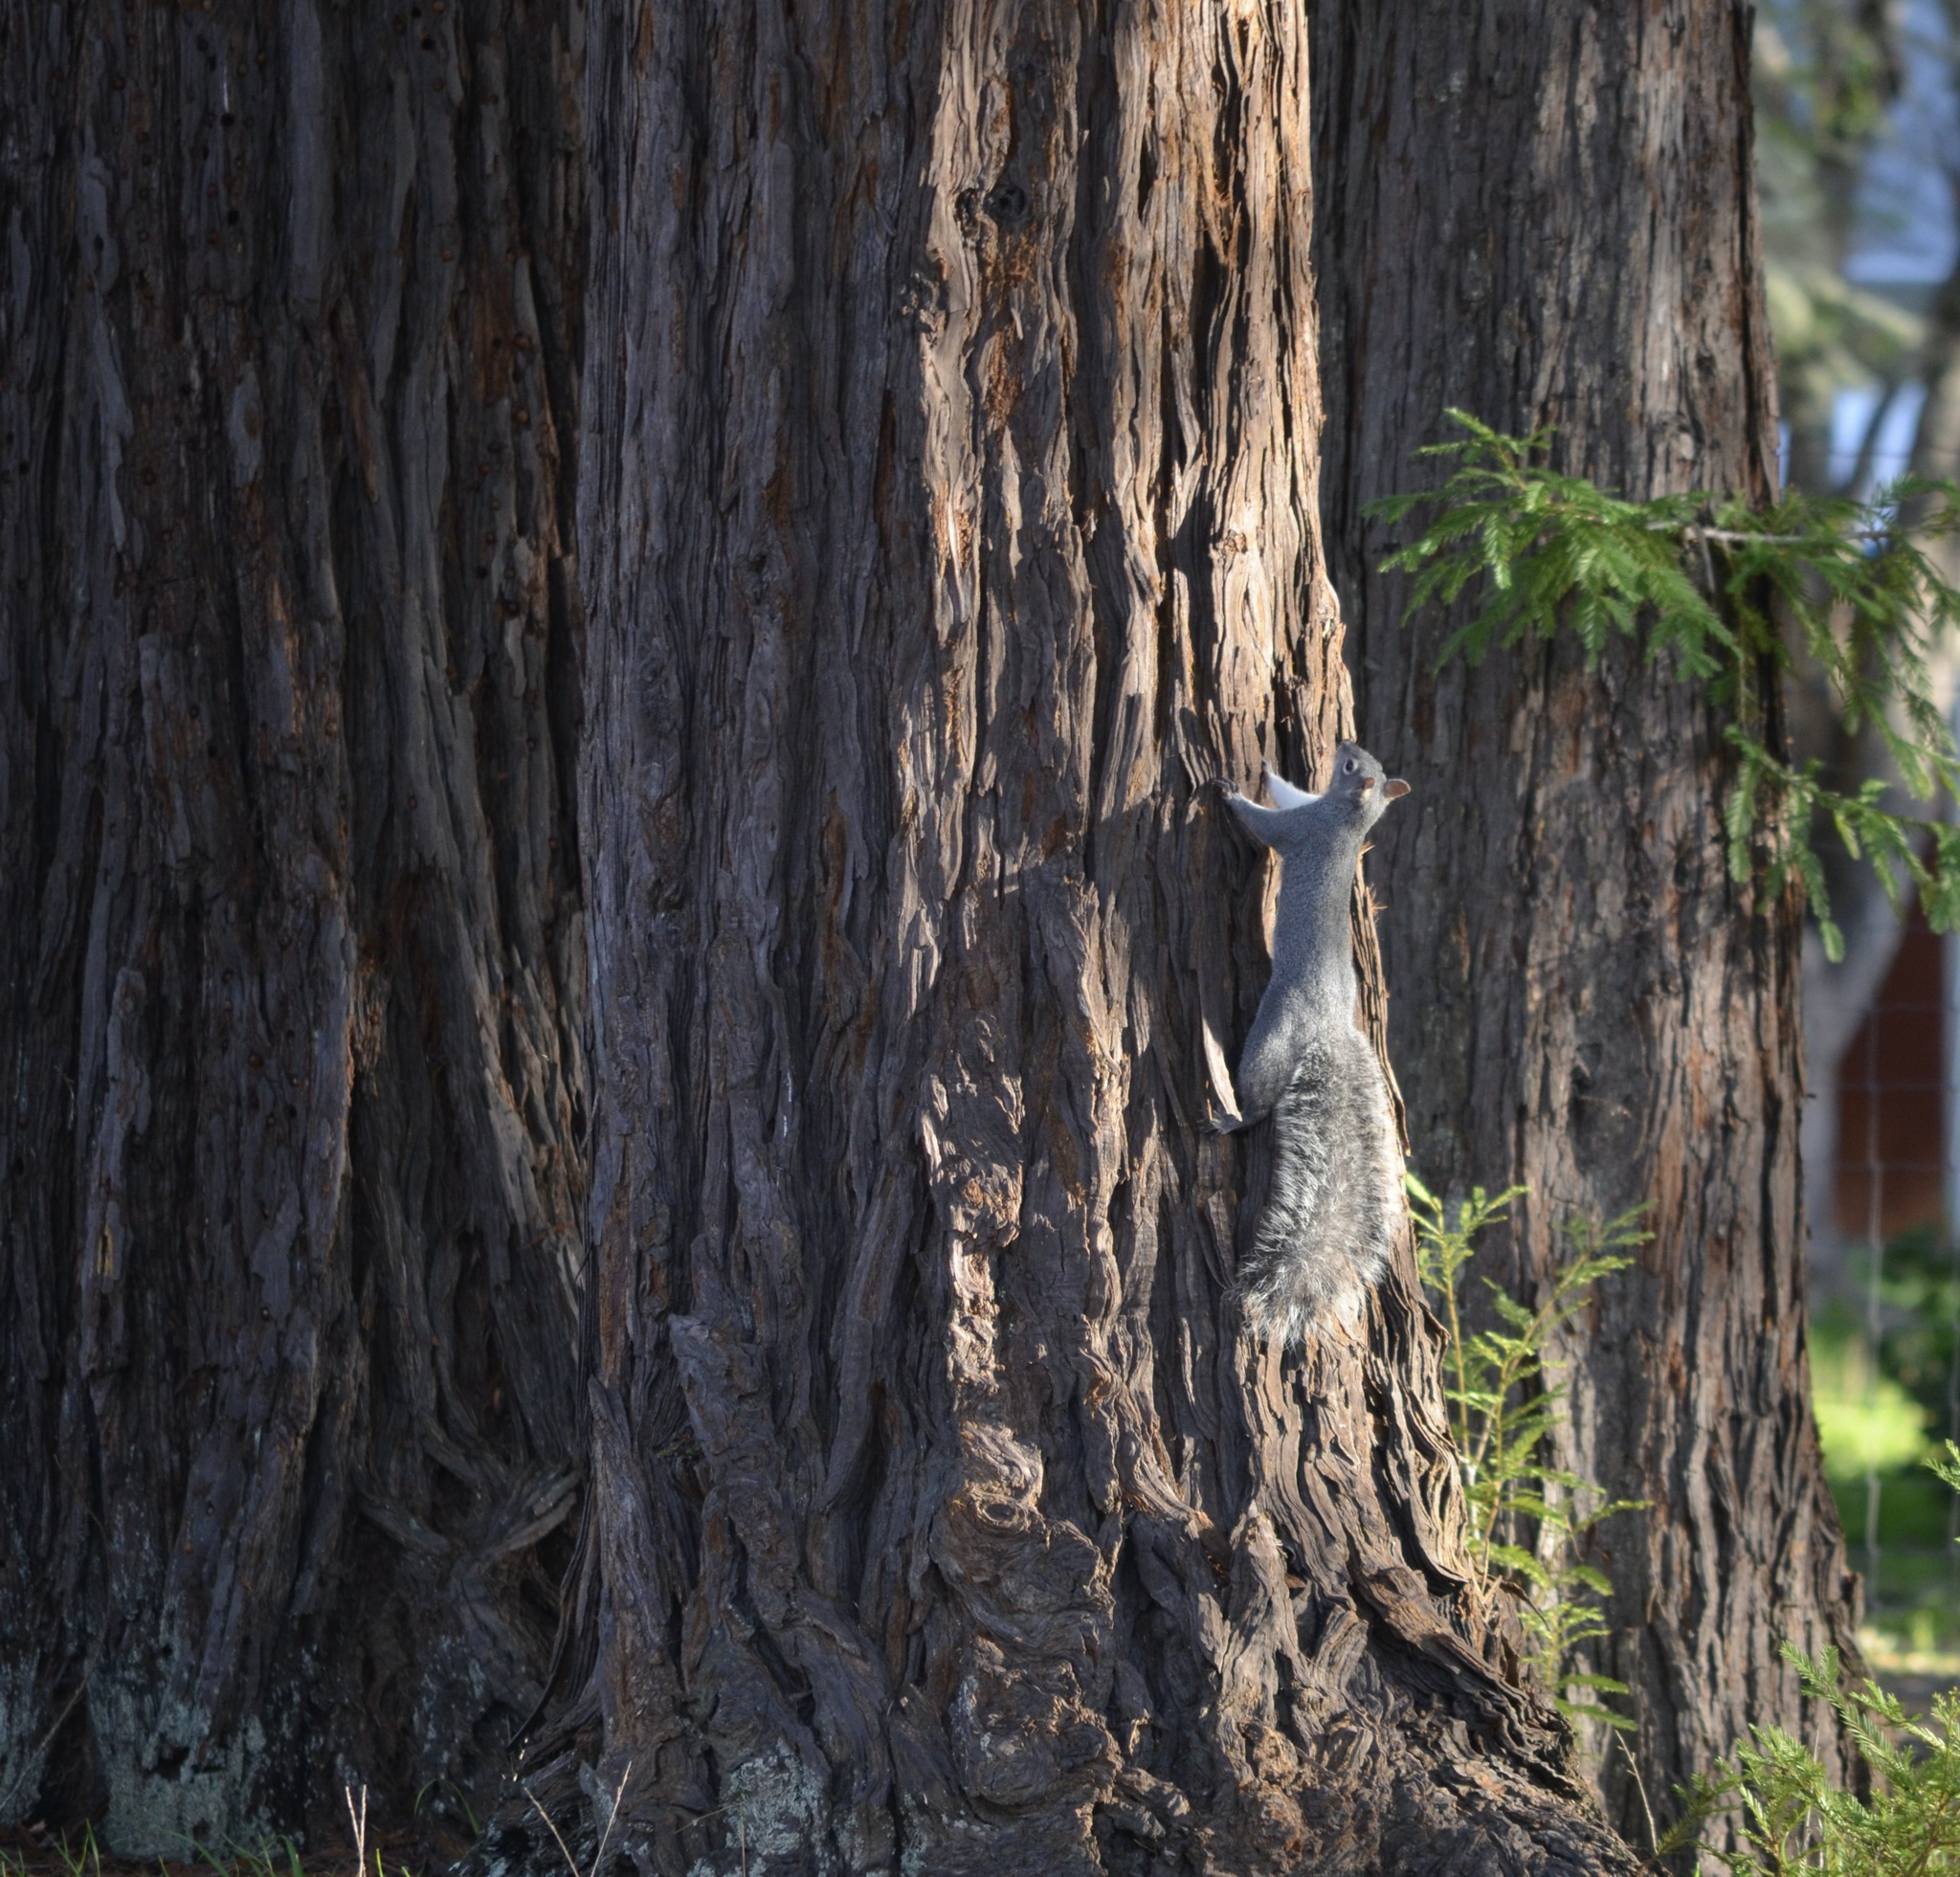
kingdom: Animalia
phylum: Chordata
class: Mammalia
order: Rodentia
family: Sciuridae
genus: Sciurus
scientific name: Sciurus griseus
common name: Western gray squirrel
